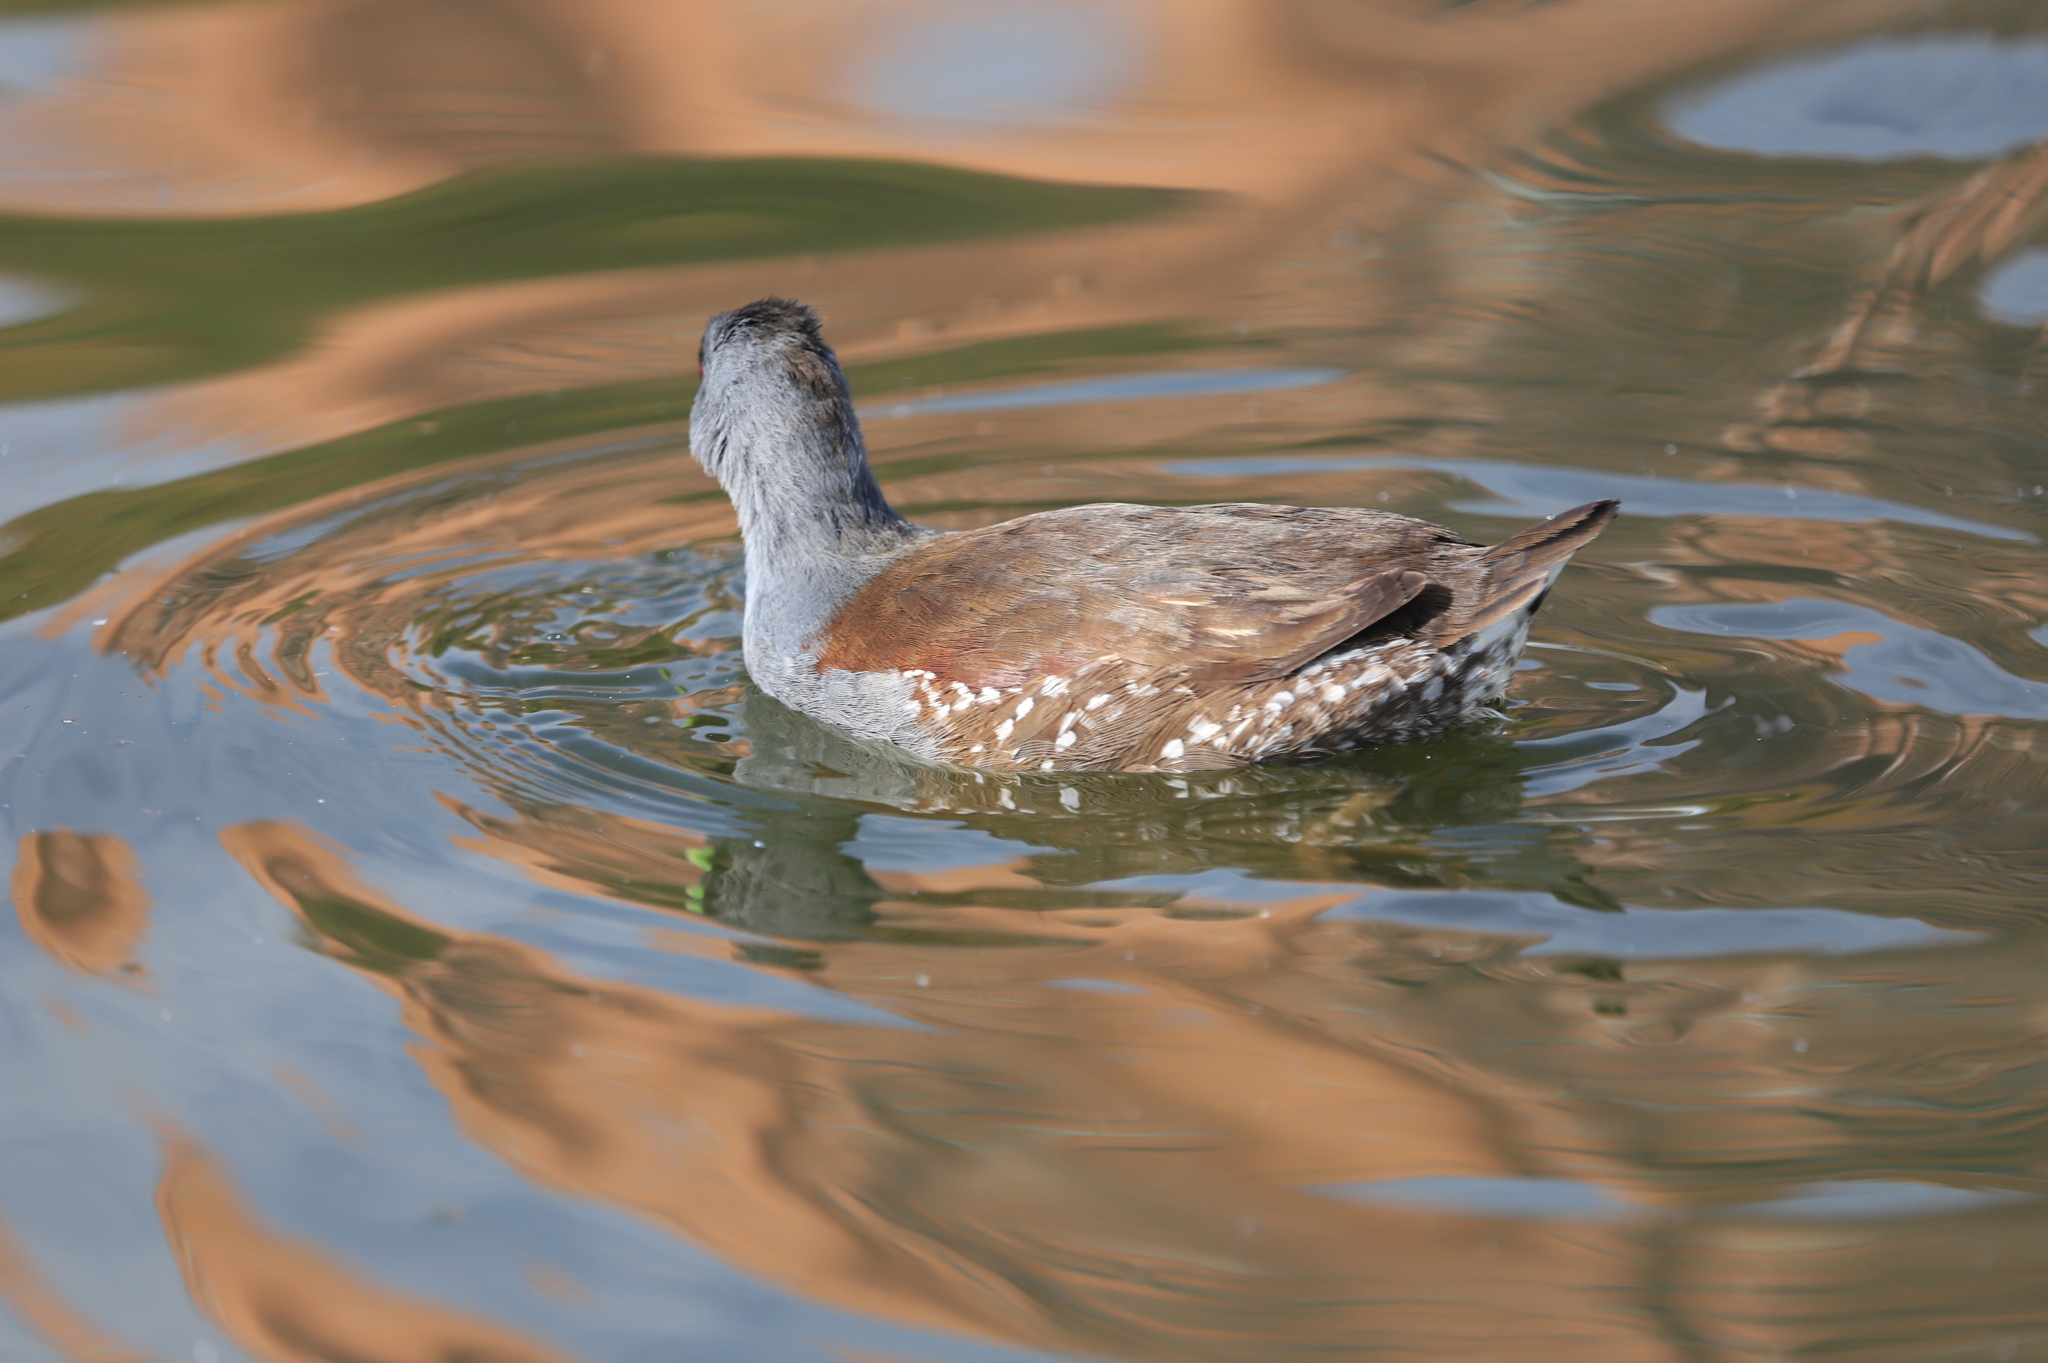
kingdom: Animalia
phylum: Chordata
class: Aves
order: Gruiformes
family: Rallidae
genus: Gallinula
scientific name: Gallinula melanops
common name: Spot-flanked gallinule
